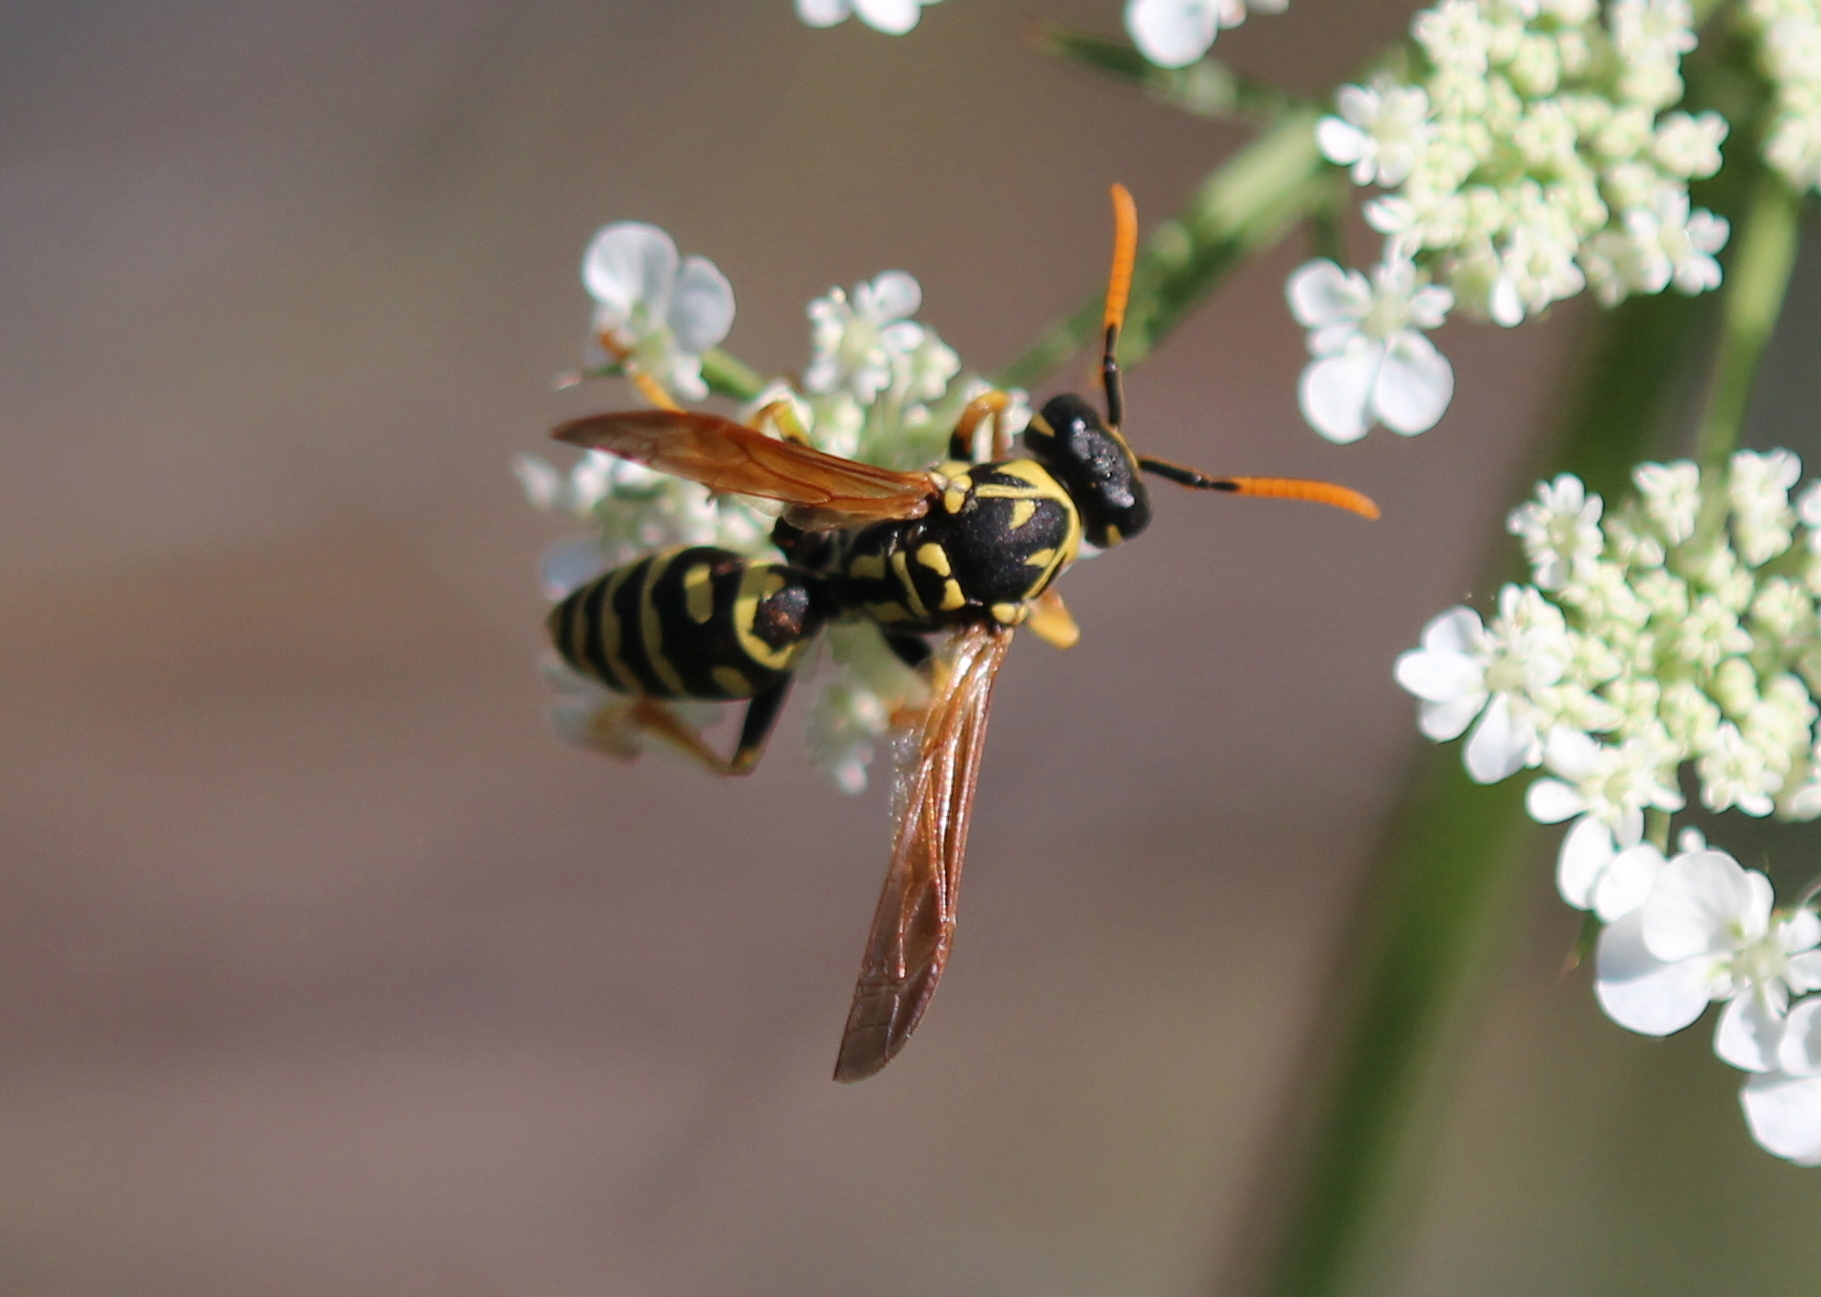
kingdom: Animalia
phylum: Arthropoda
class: Insecta
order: Hymenoptera
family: Eumenidae
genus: Polistes
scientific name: Polistes dominula
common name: Paper wasp
